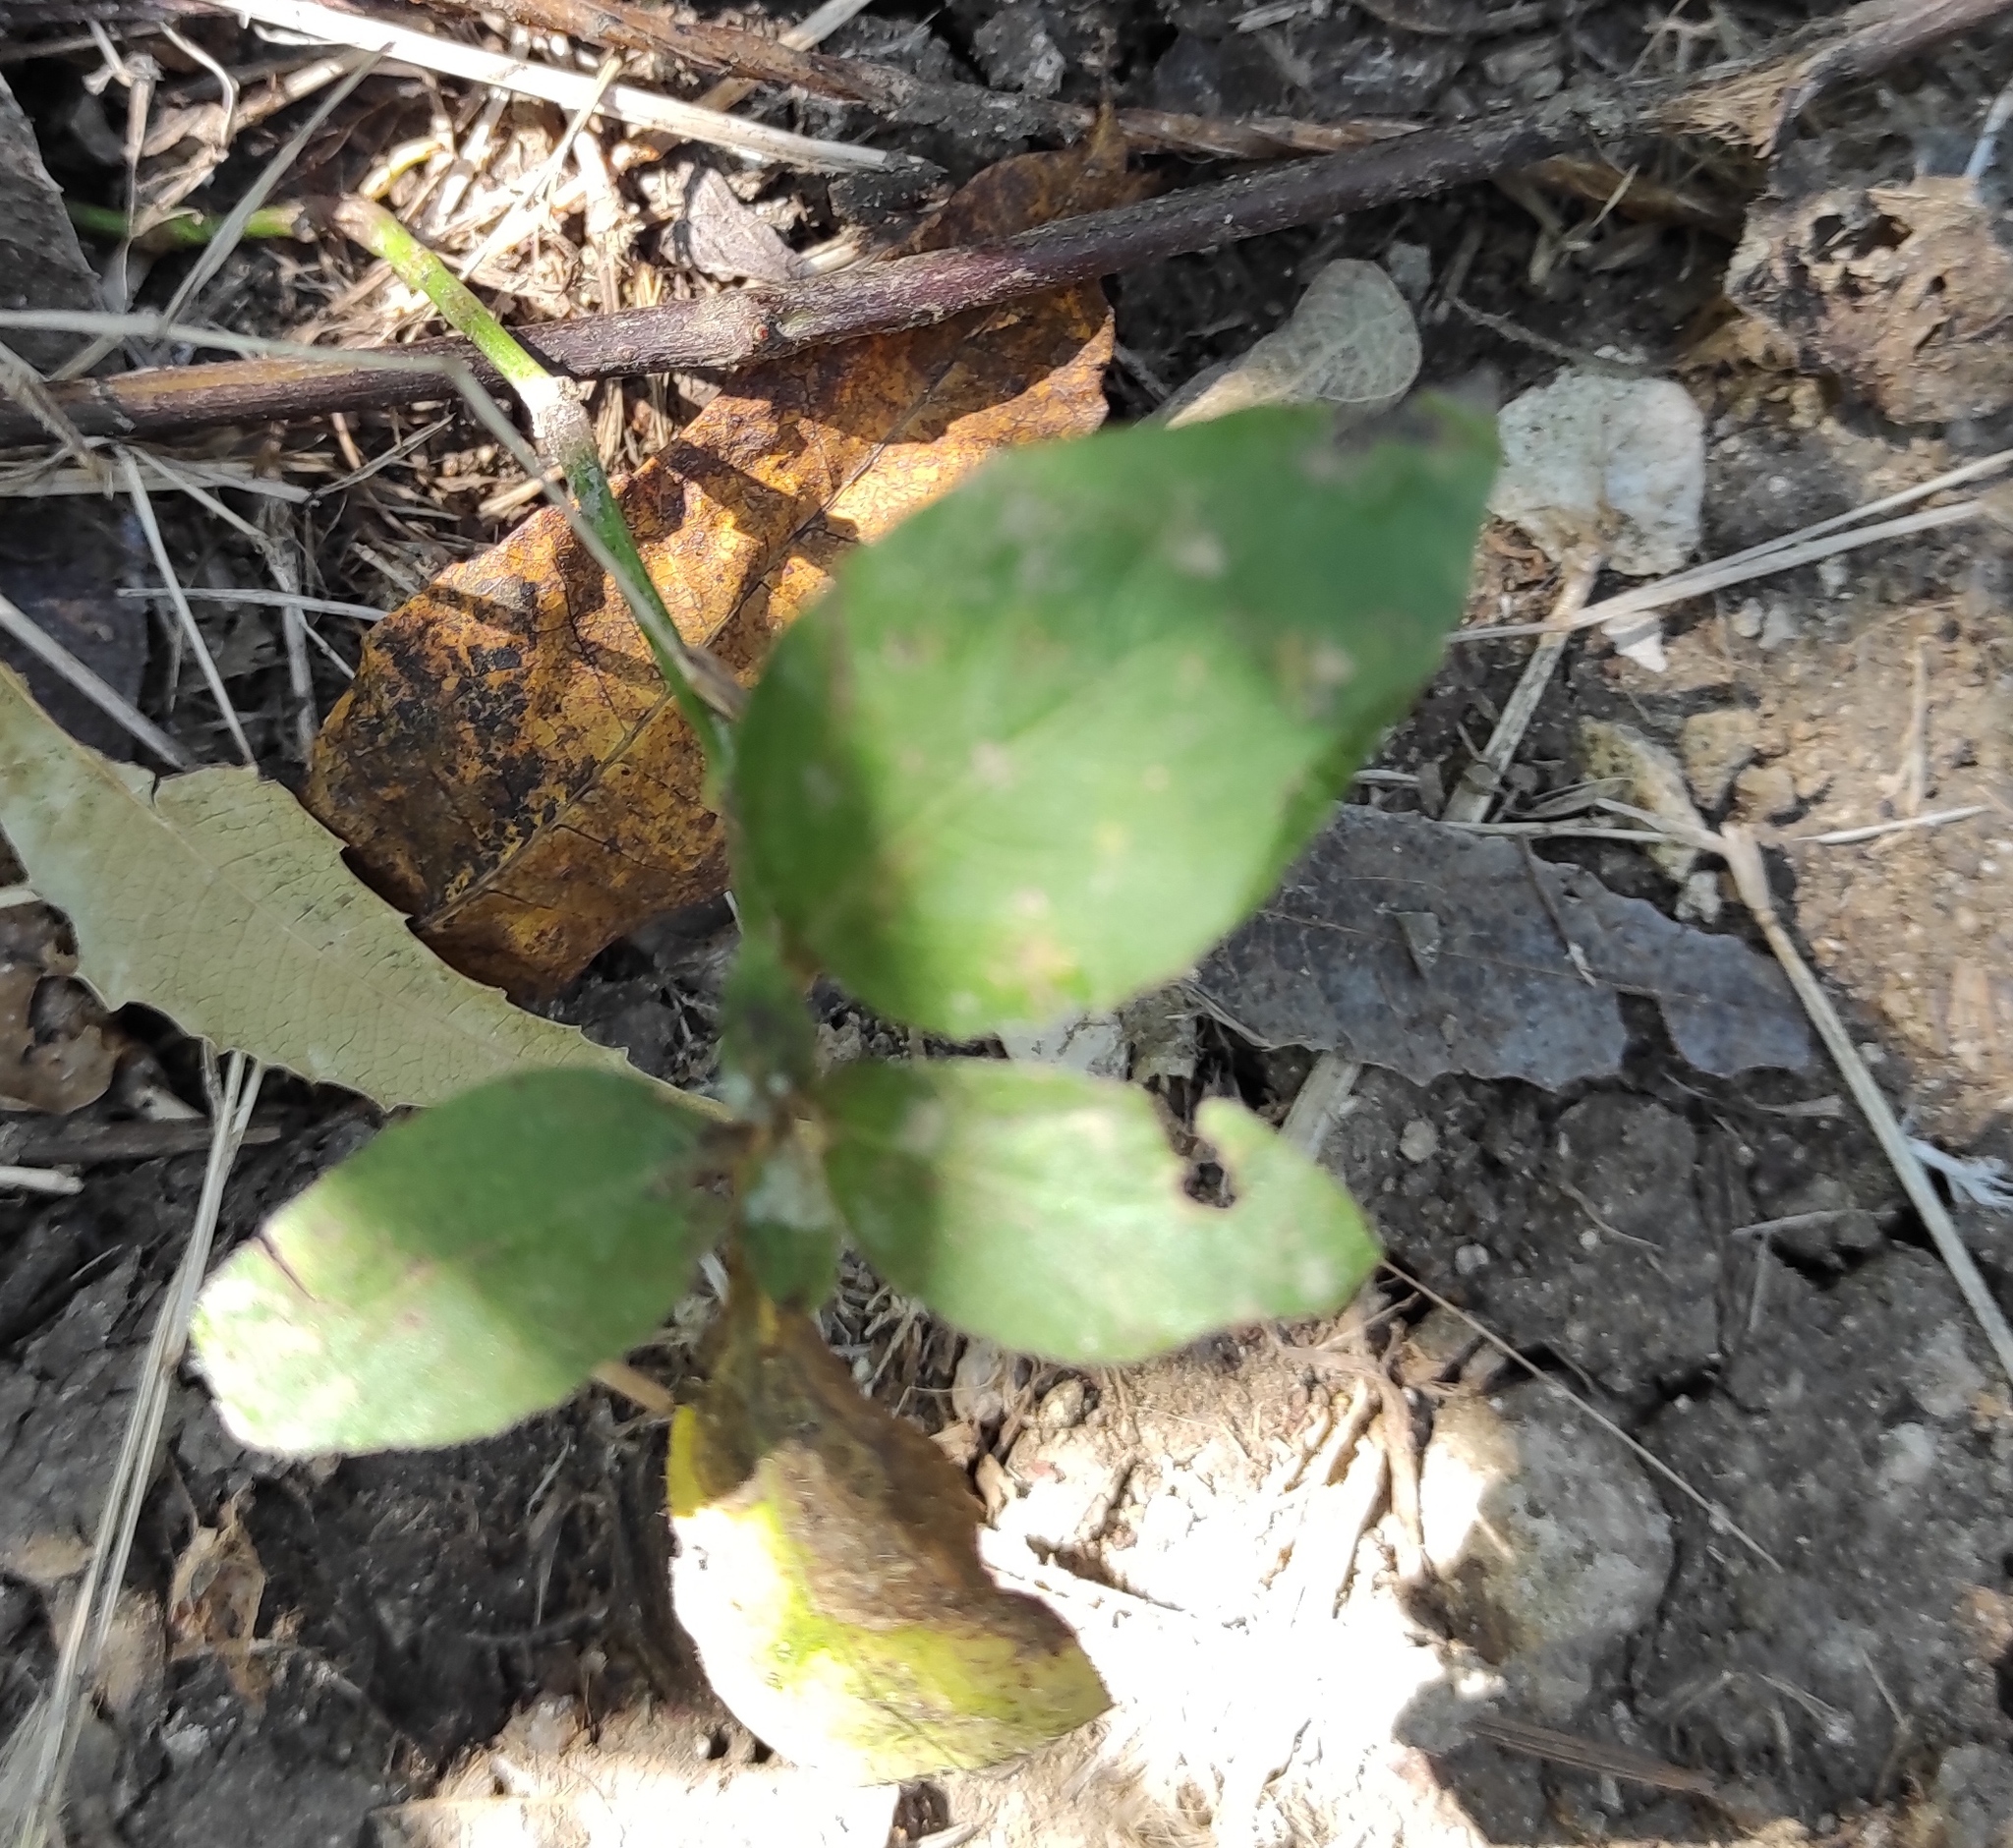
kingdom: Plantae
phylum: Tracheophyta
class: Magnoliopsida
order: Solanales
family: Convolvulaceae
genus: Camonea
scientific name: Camonea umbellata
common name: Hogvine
